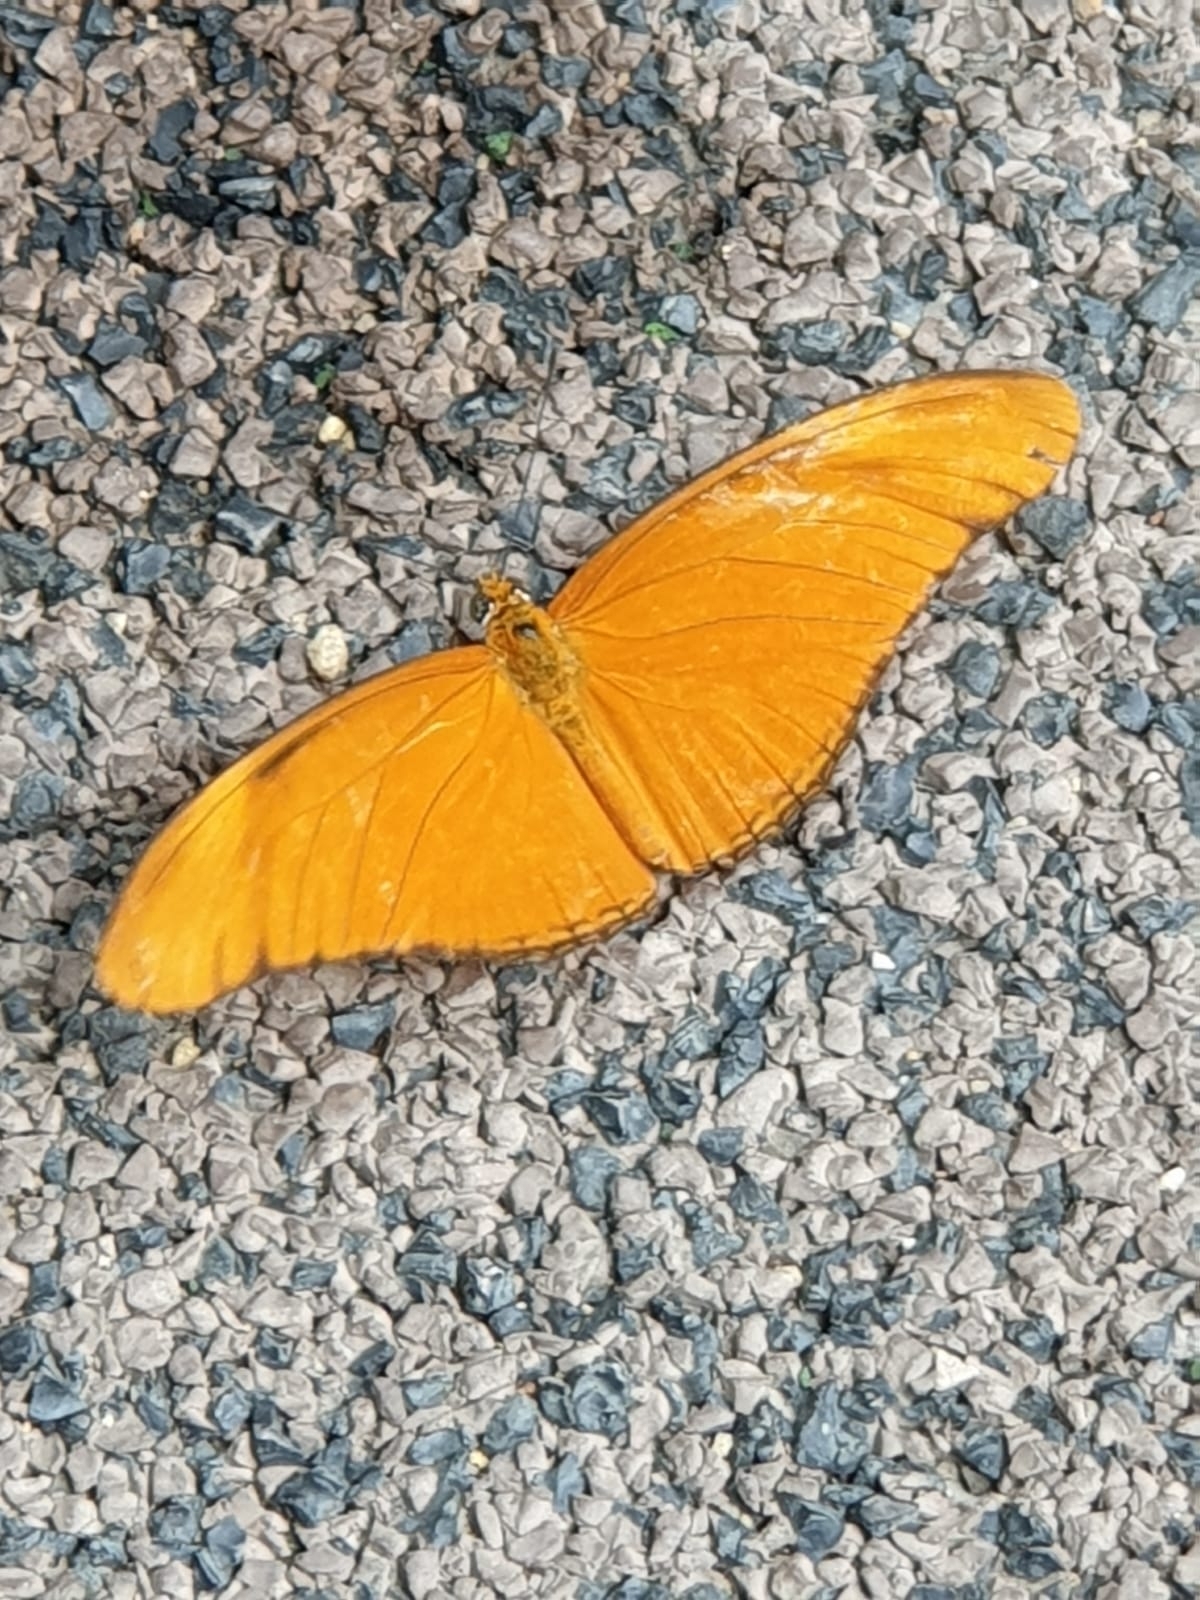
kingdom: Animalia
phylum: Arthropoda
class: Insecta
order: Lepidoptera
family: Nymphalidae
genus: Dryas
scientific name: Dryas iulia
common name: Flambeau
